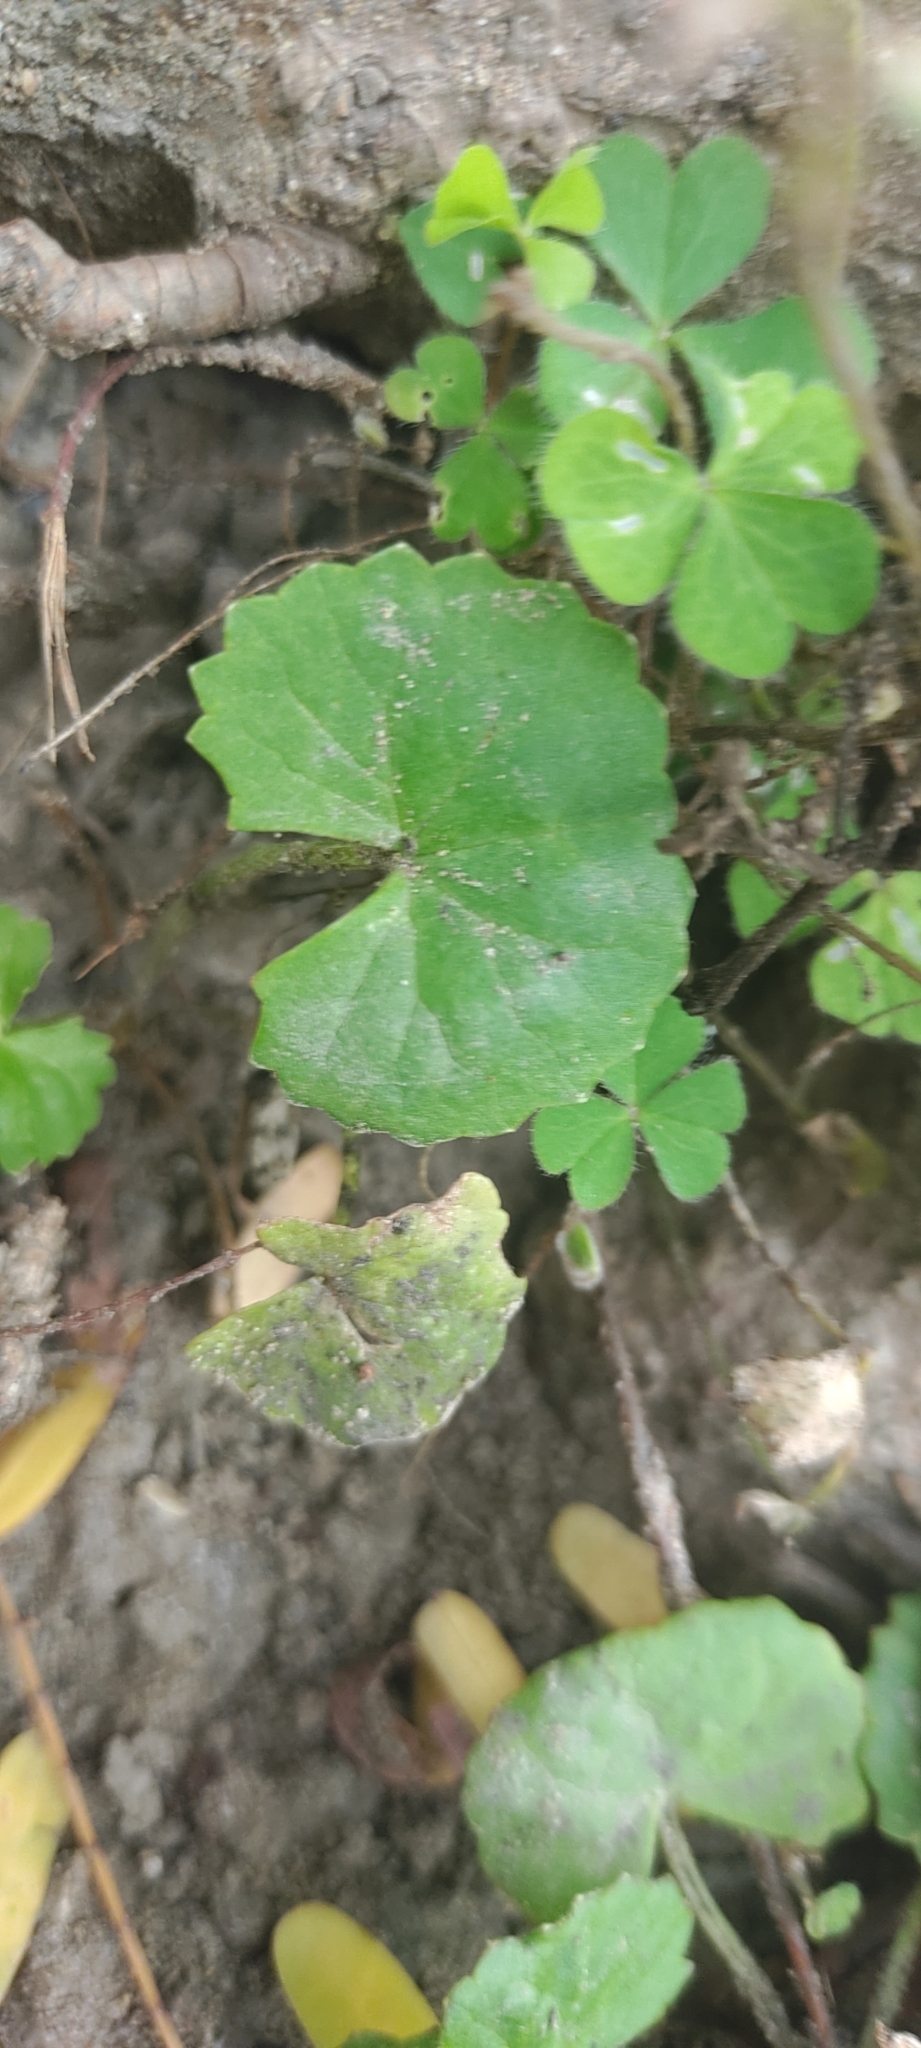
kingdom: Plantae
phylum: Tracheophyta
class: Magnoliopsida
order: Apiales
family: Apiaceae
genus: Centella
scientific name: Centella asiatica
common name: Spadeleaf
